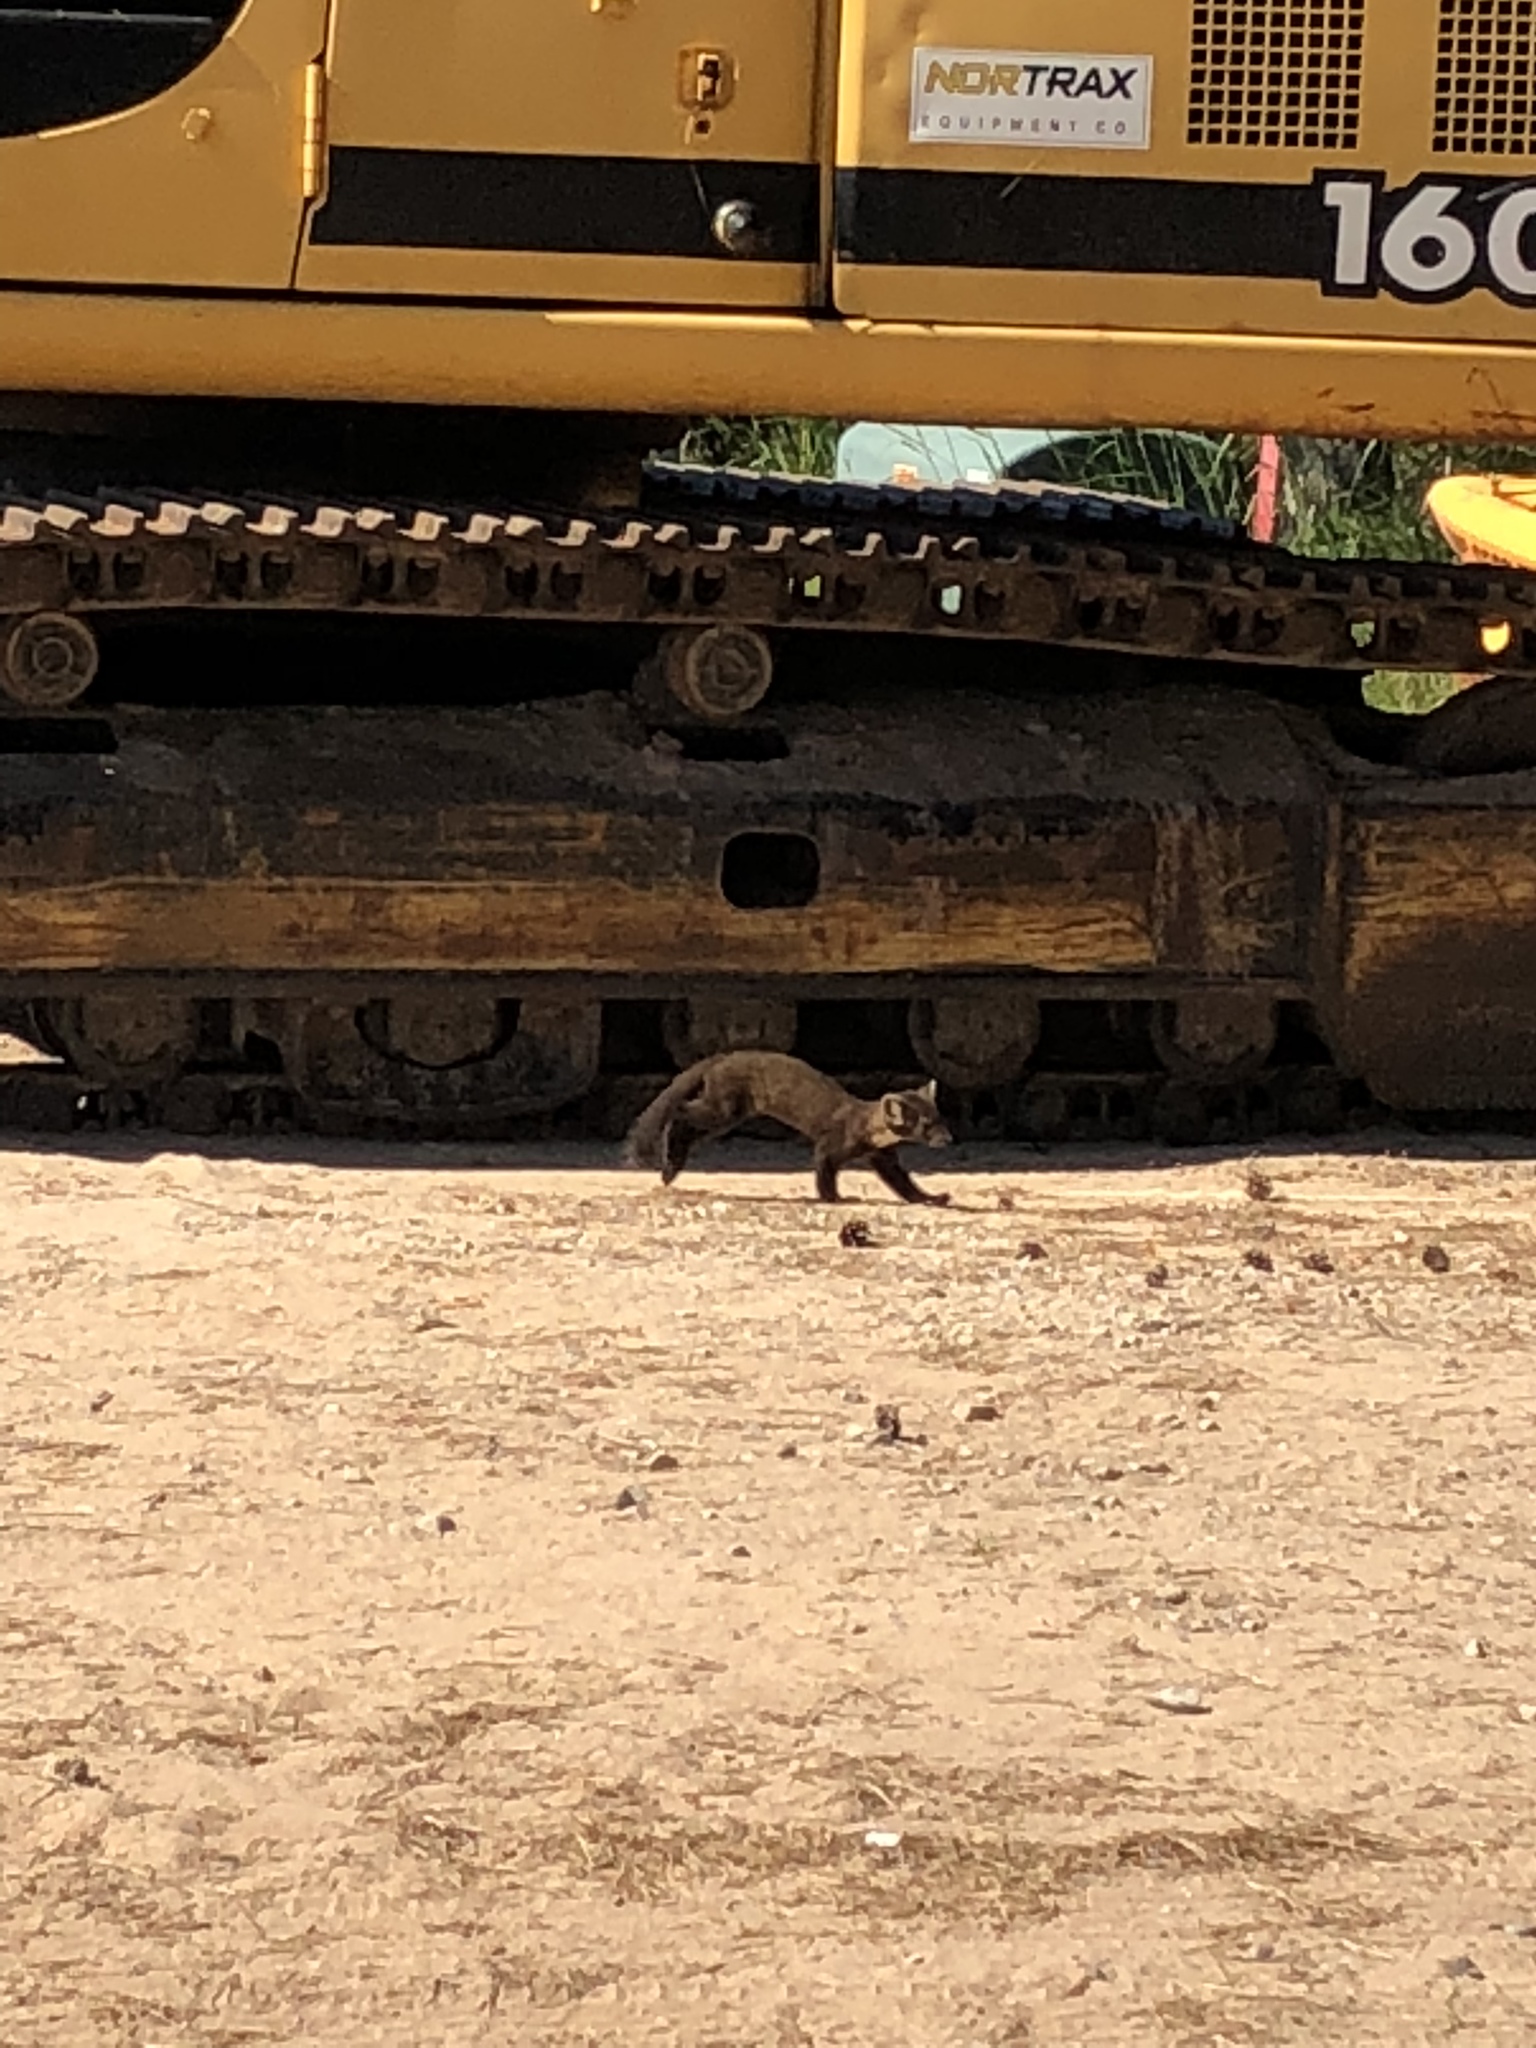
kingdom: Animalia
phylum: Chordata
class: Mammalia
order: Carnivora
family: Mustelidae
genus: Martes
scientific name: Martes americana
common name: American marten
